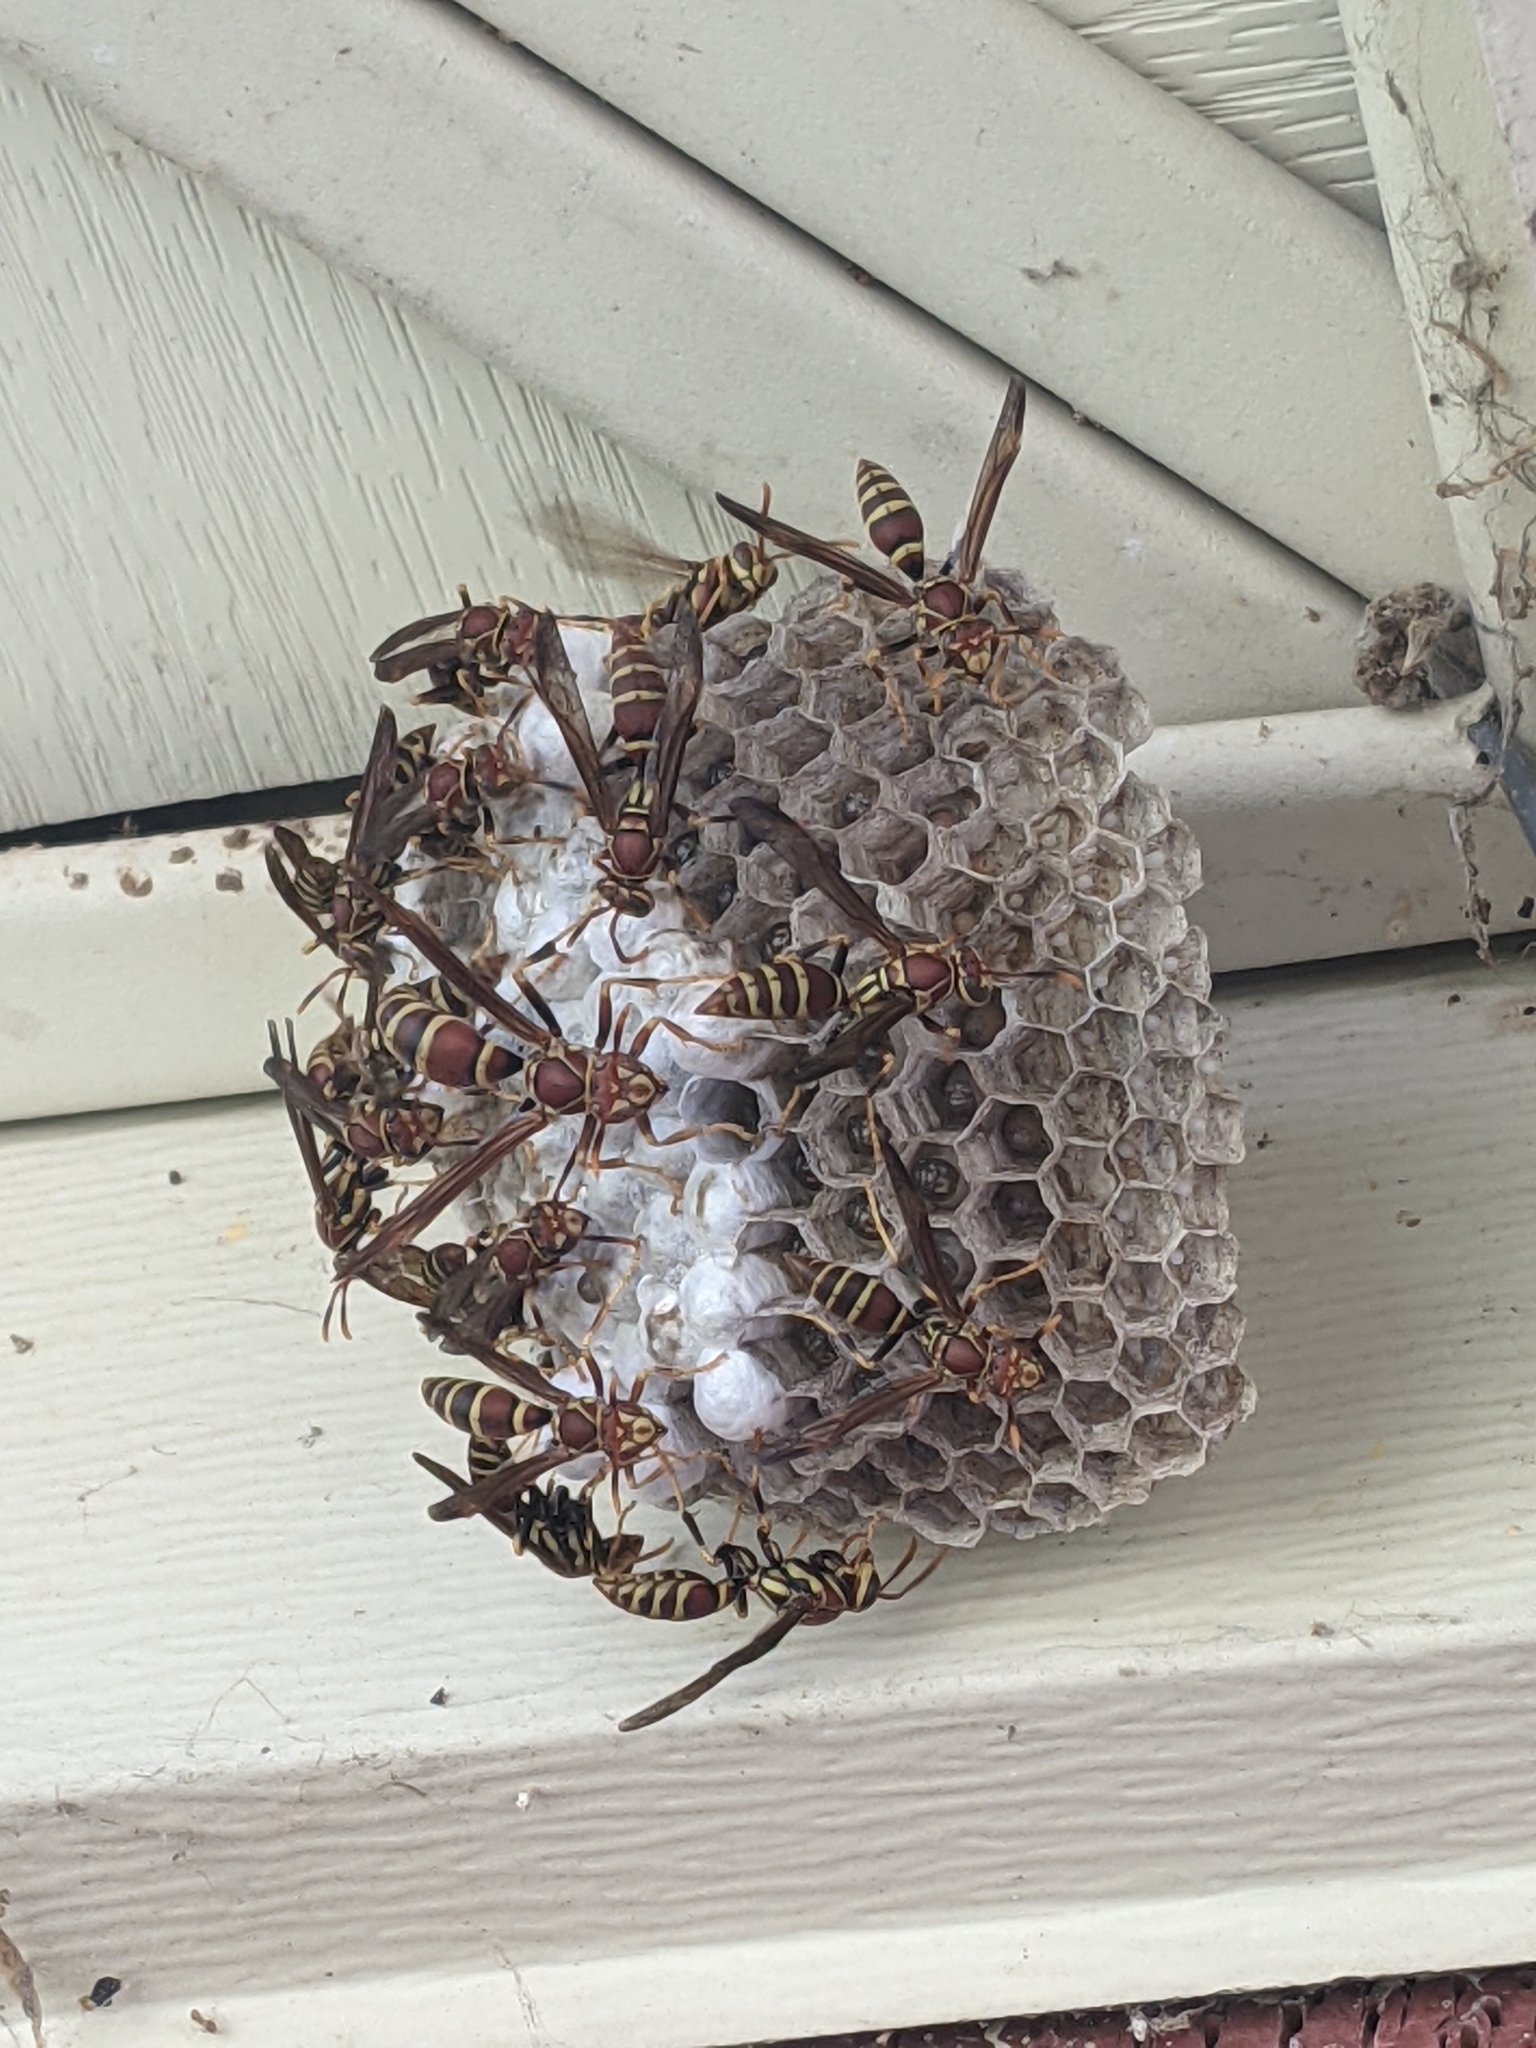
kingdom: Animalia
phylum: Arthropoda
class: Insecta
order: Hymenoptera
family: Eumenidae
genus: Polistes
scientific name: Polistes exclamans
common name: Paper wasp
